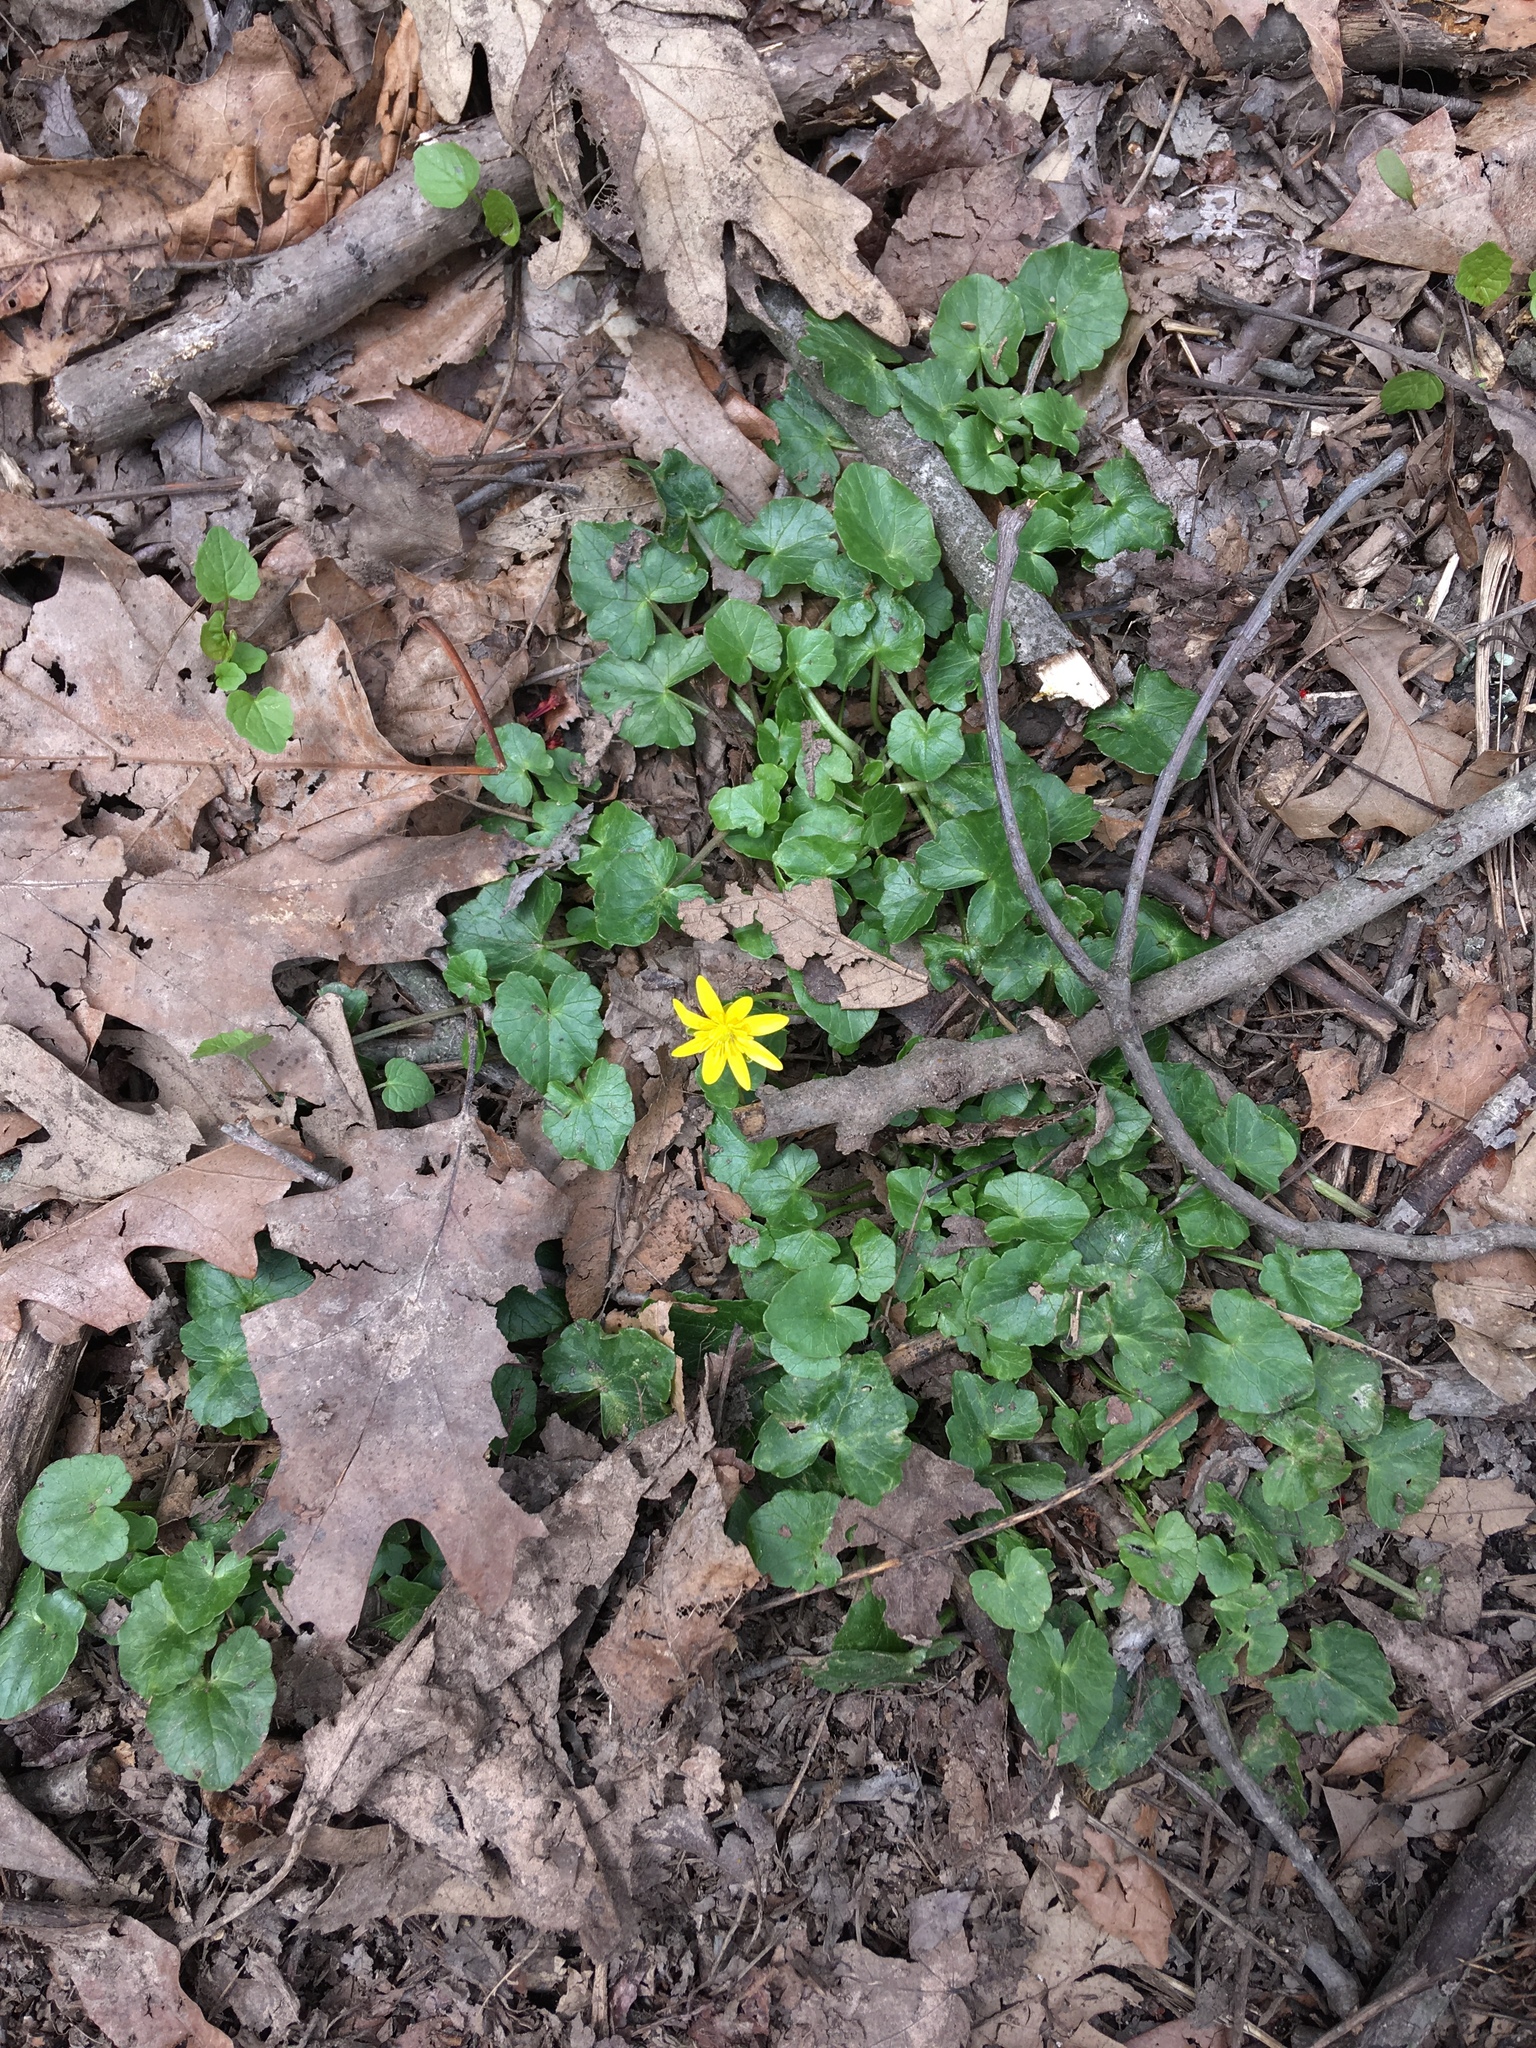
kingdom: Plantae
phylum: Tracheophyta
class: Magnoliopsida
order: Ranunculales
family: Ranunculaceae
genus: Ficaria
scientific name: Ficaria verna
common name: Lesser celandine
